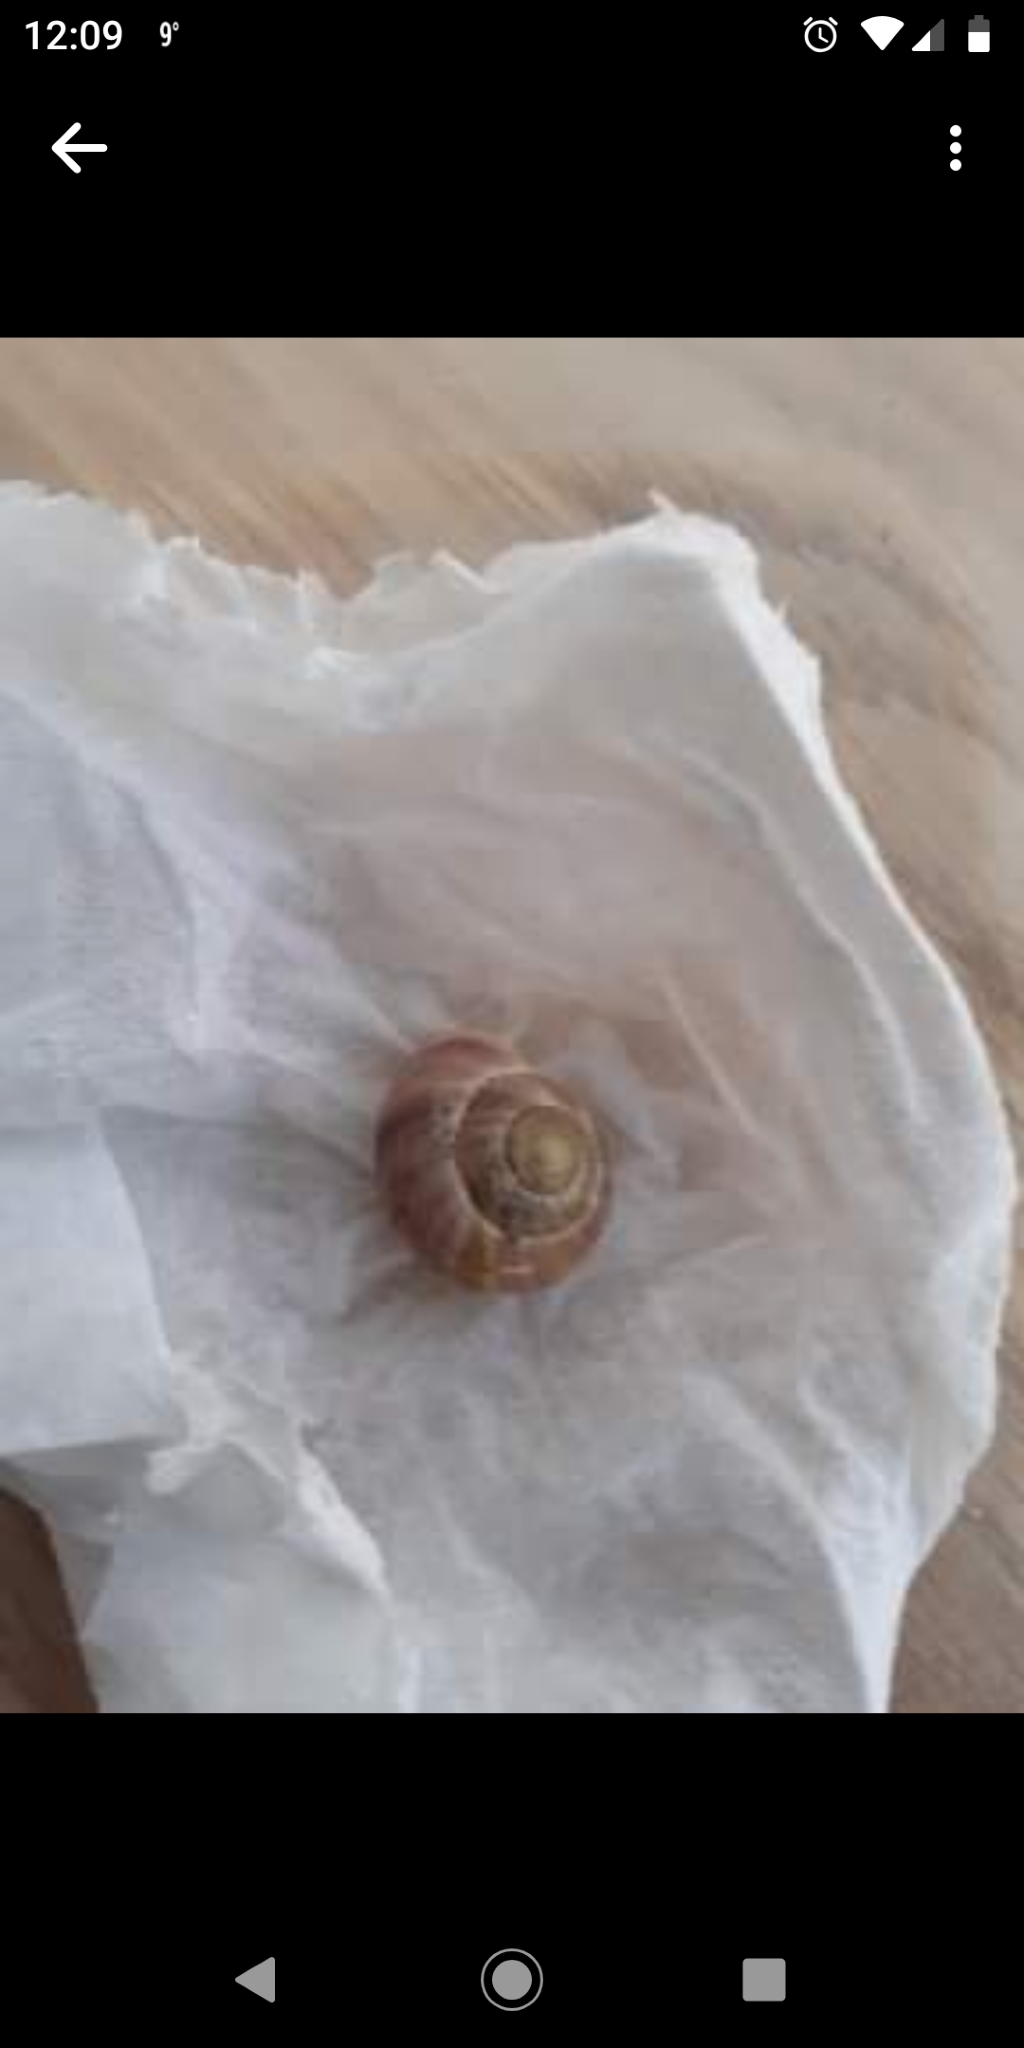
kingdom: Animalia
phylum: Mollusca
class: Gastropoda
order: Stylommatophora
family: Helicidae
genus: Cepaea
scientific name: Cepaea nemoralis
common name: Grovesnail
